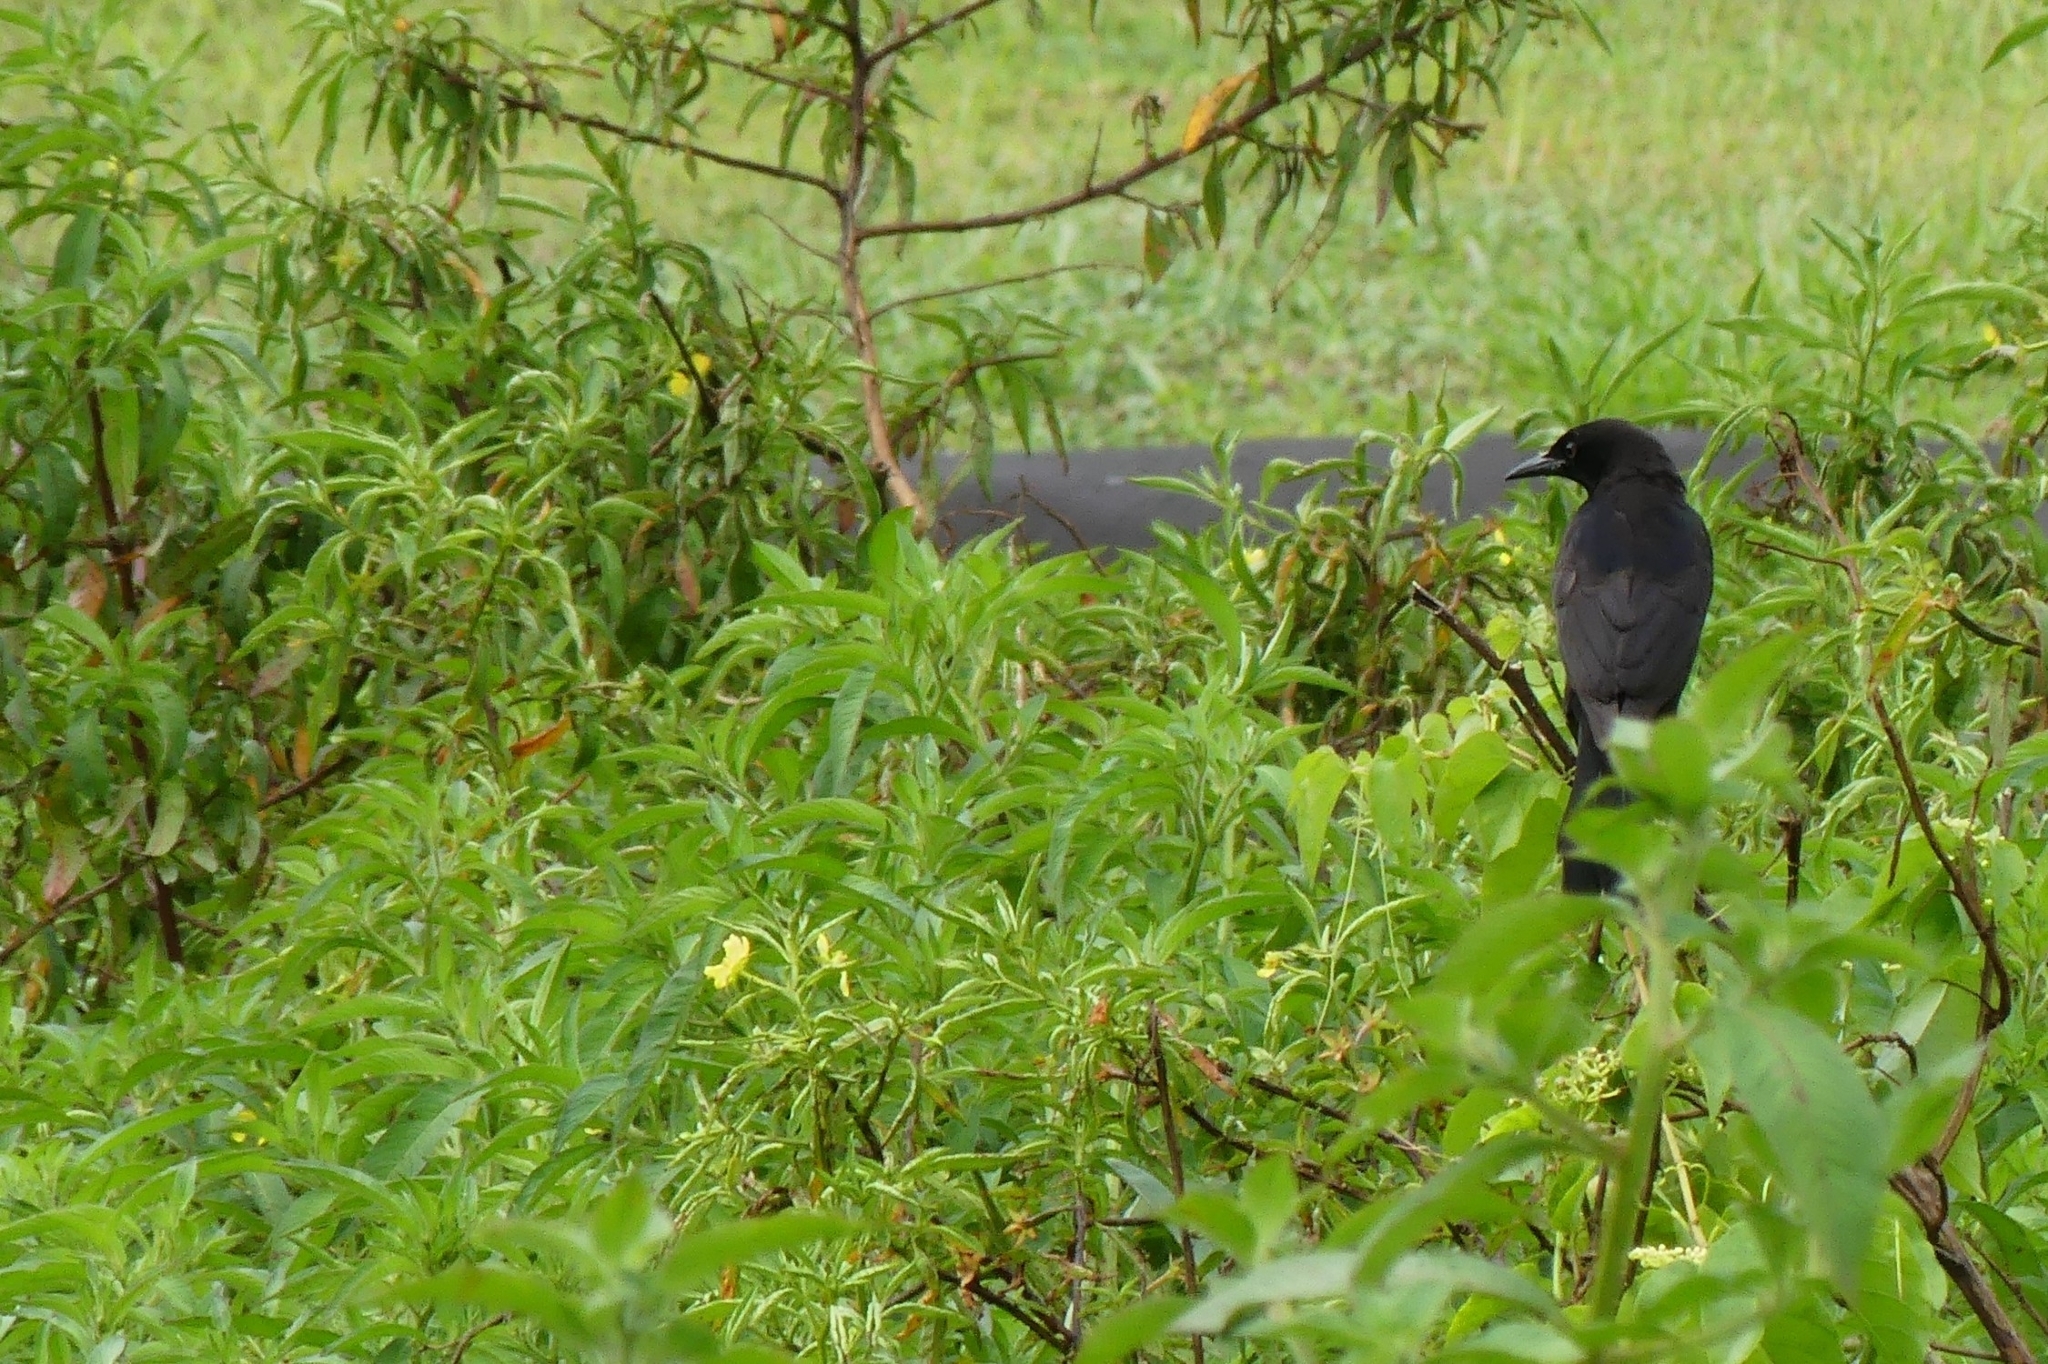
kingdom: Animalia
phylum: Chordata
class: Aves
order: Passeriformes
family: Icteridae
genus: Quiscalus
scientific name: Quiscalus lugubris
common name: Carib grackle
